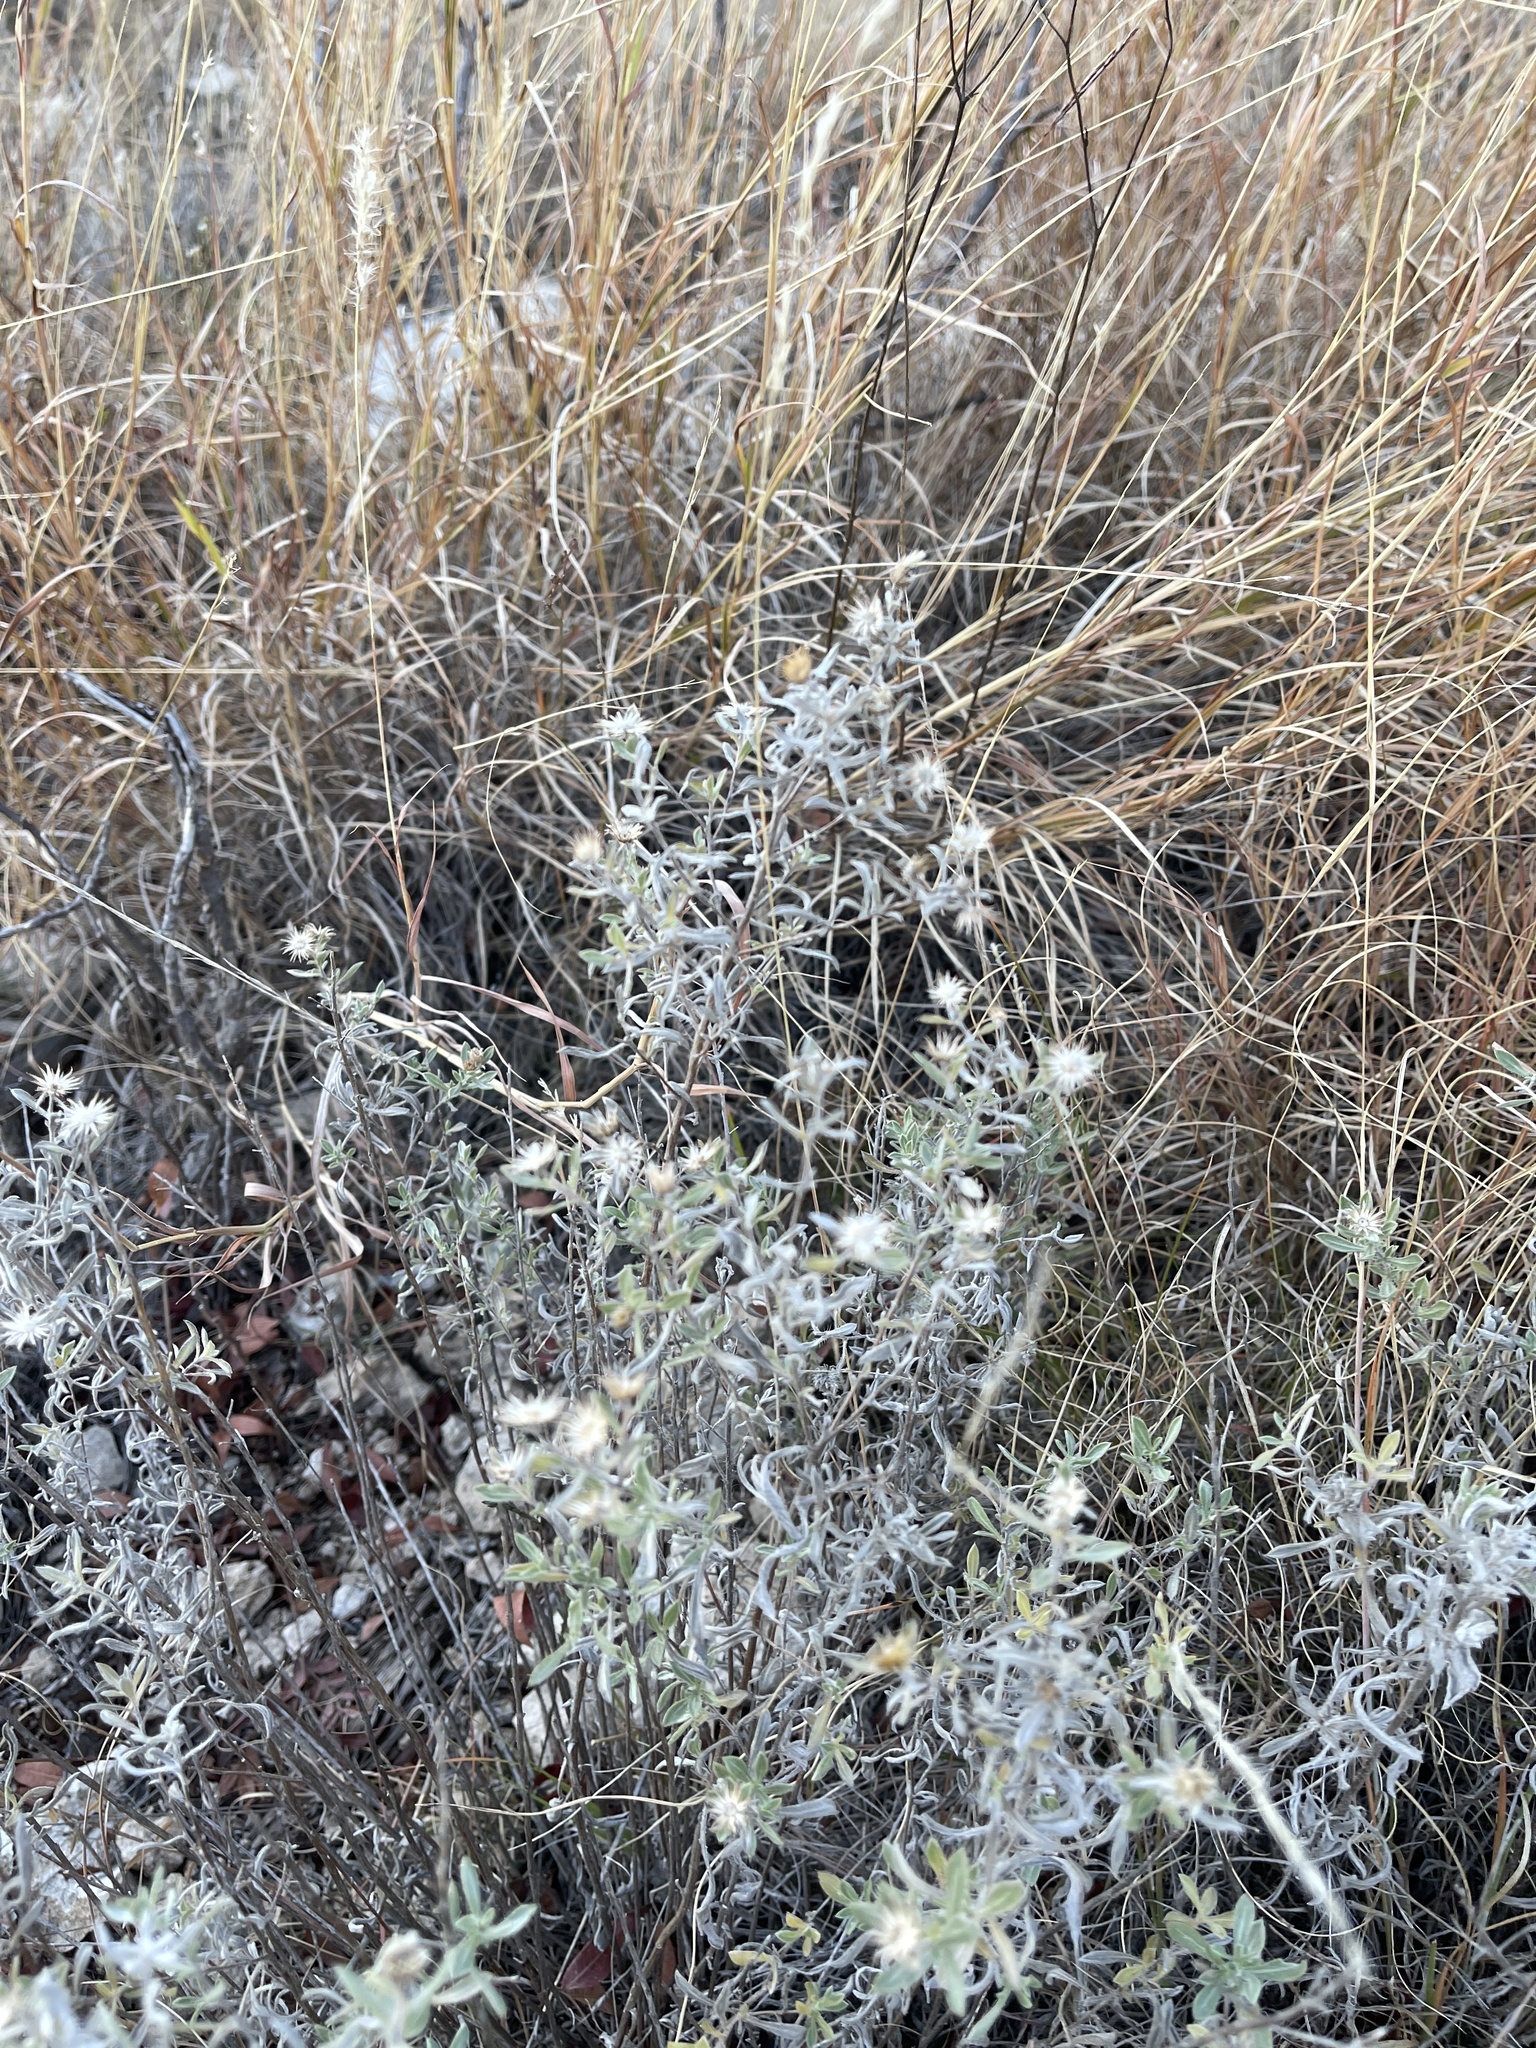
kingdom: Plantae
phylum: Tracheophyta
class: Magnoliopsida
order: Asterales
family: Asteraceae
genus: Heterotheca
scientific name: Heterotheca canescens
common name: Hoary golden-aster
